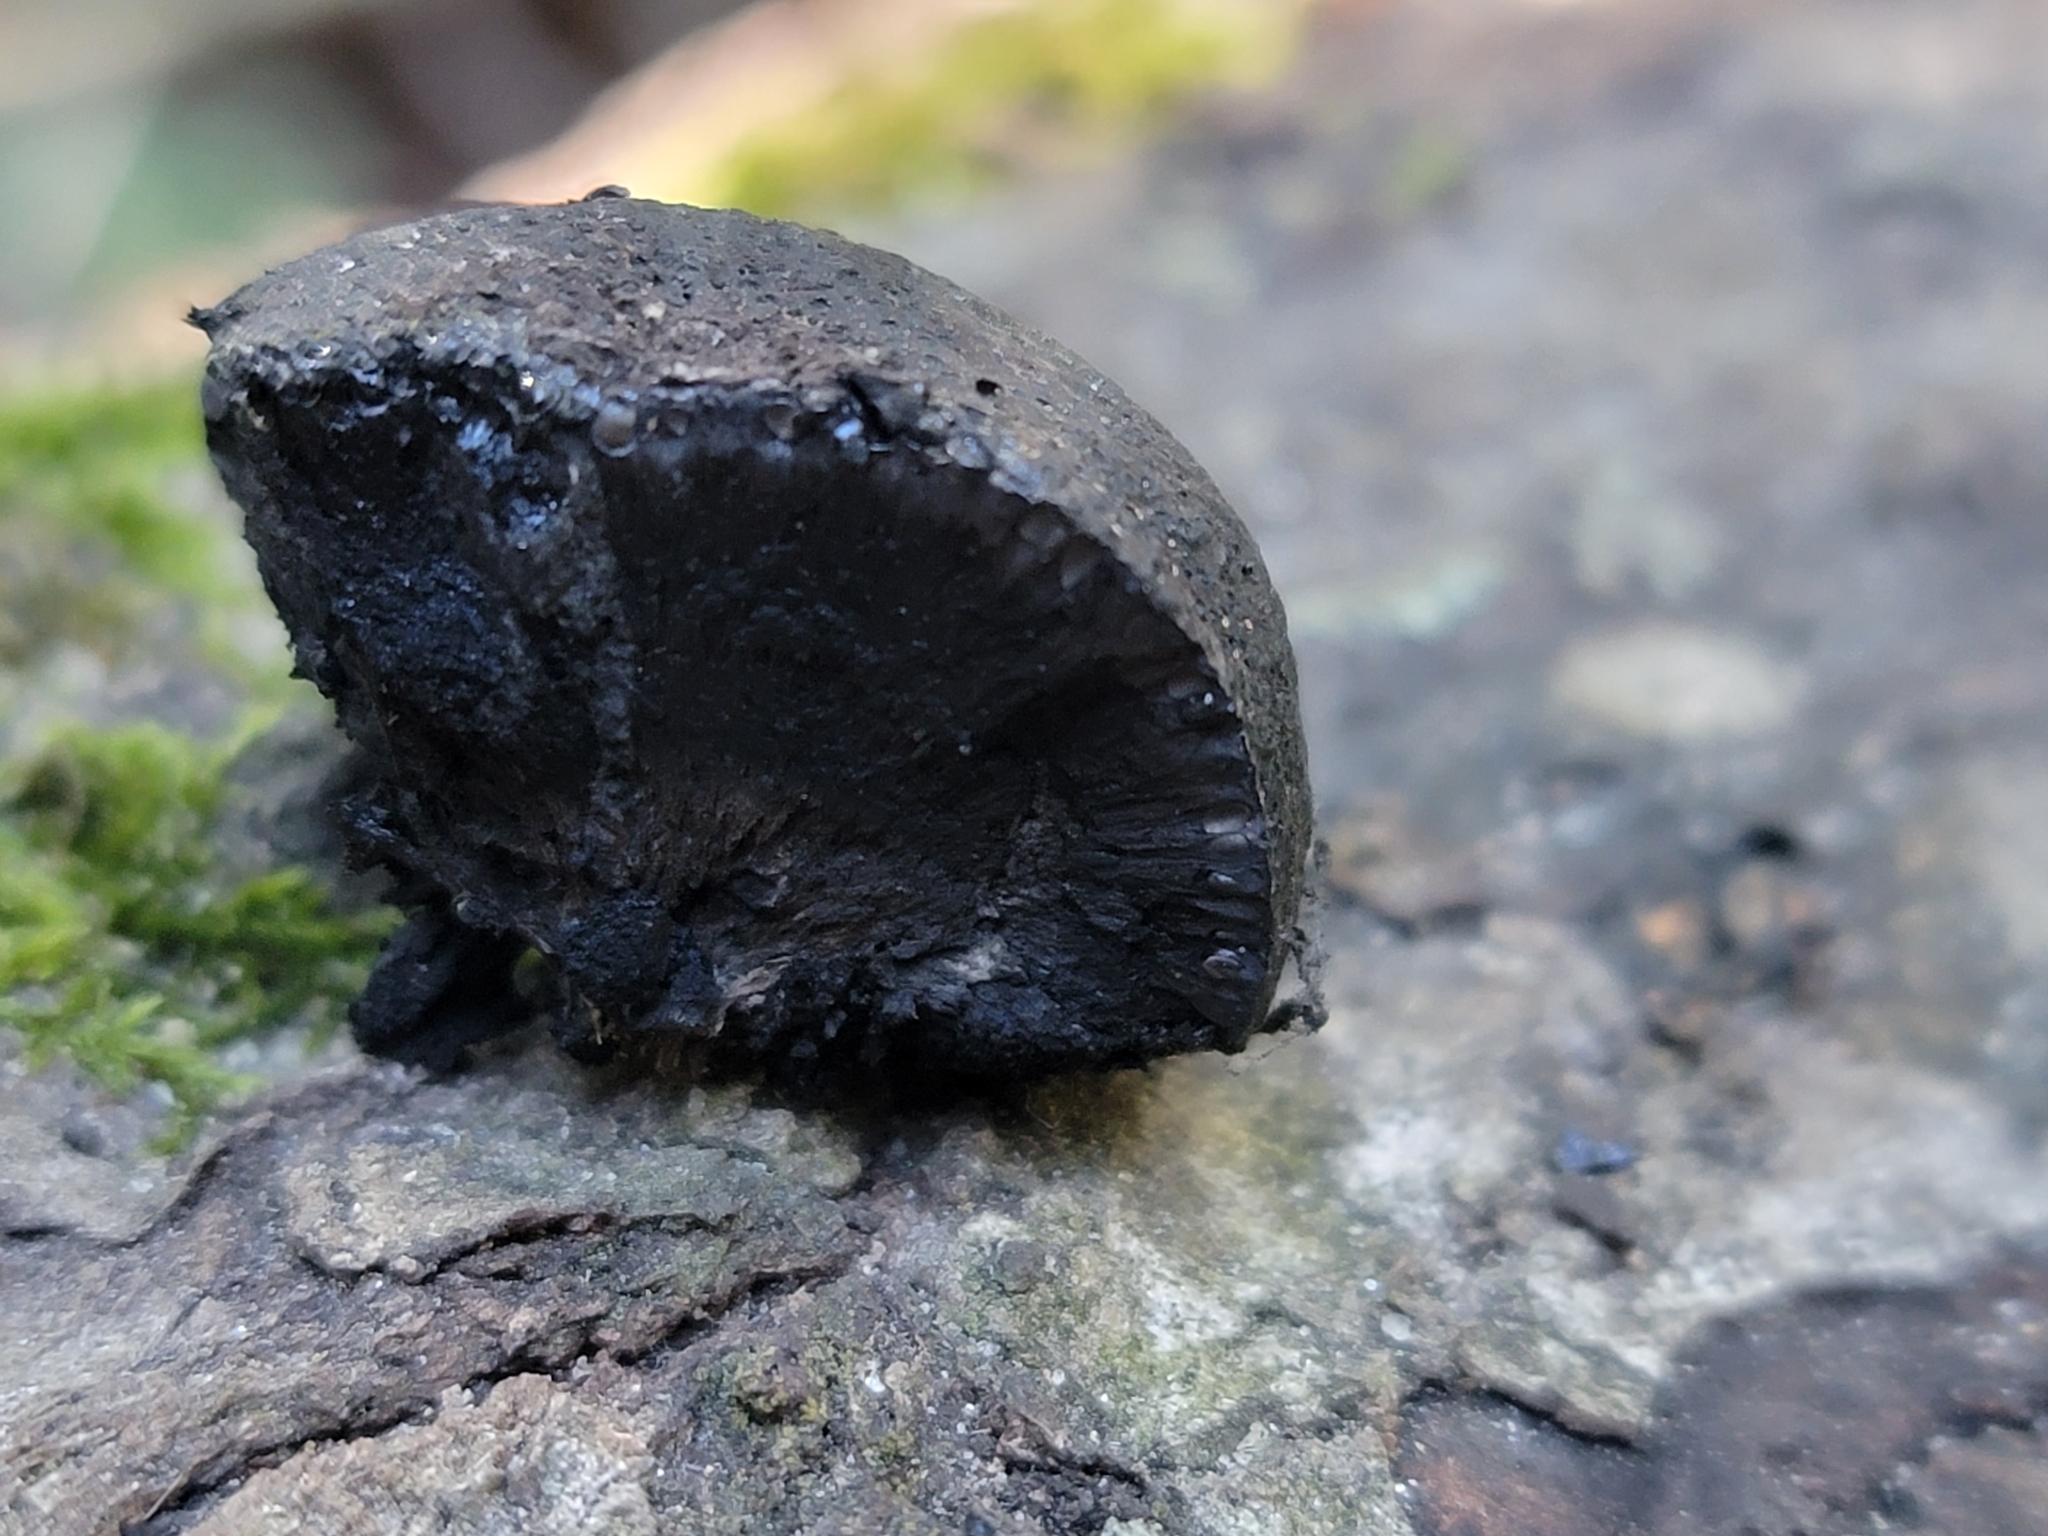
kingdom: Fungi
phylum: Ascomycota
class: Sordariomycetes
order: Xylariales
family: Hypoxylaceae
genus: Annulohypoxylon
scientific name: Annulohypoxylon thouarsianum
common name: Cramp balls
